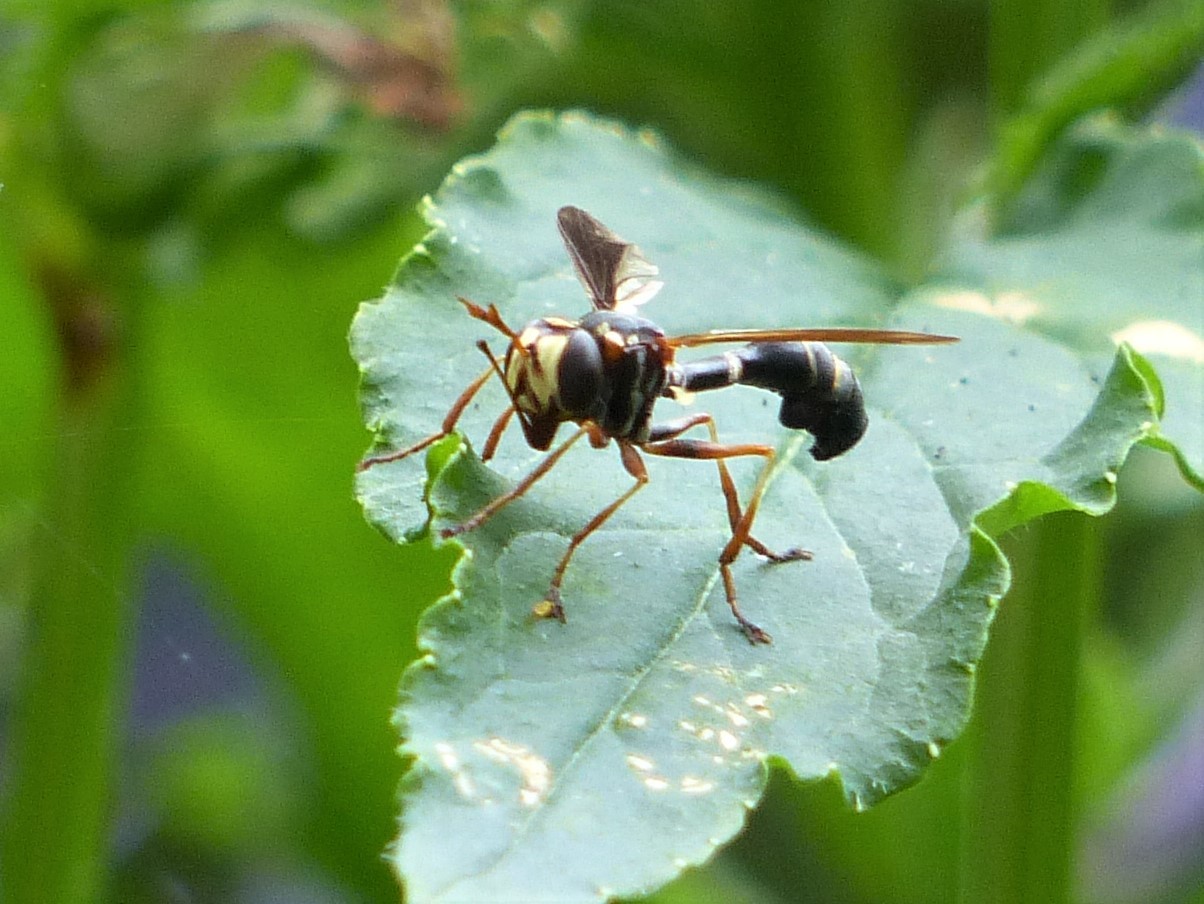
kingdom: Animalia
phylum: Arthropoda
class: Insecta
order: Diptera
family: Conopidae
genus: Physocephala
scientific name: Physocephala sagittaria
